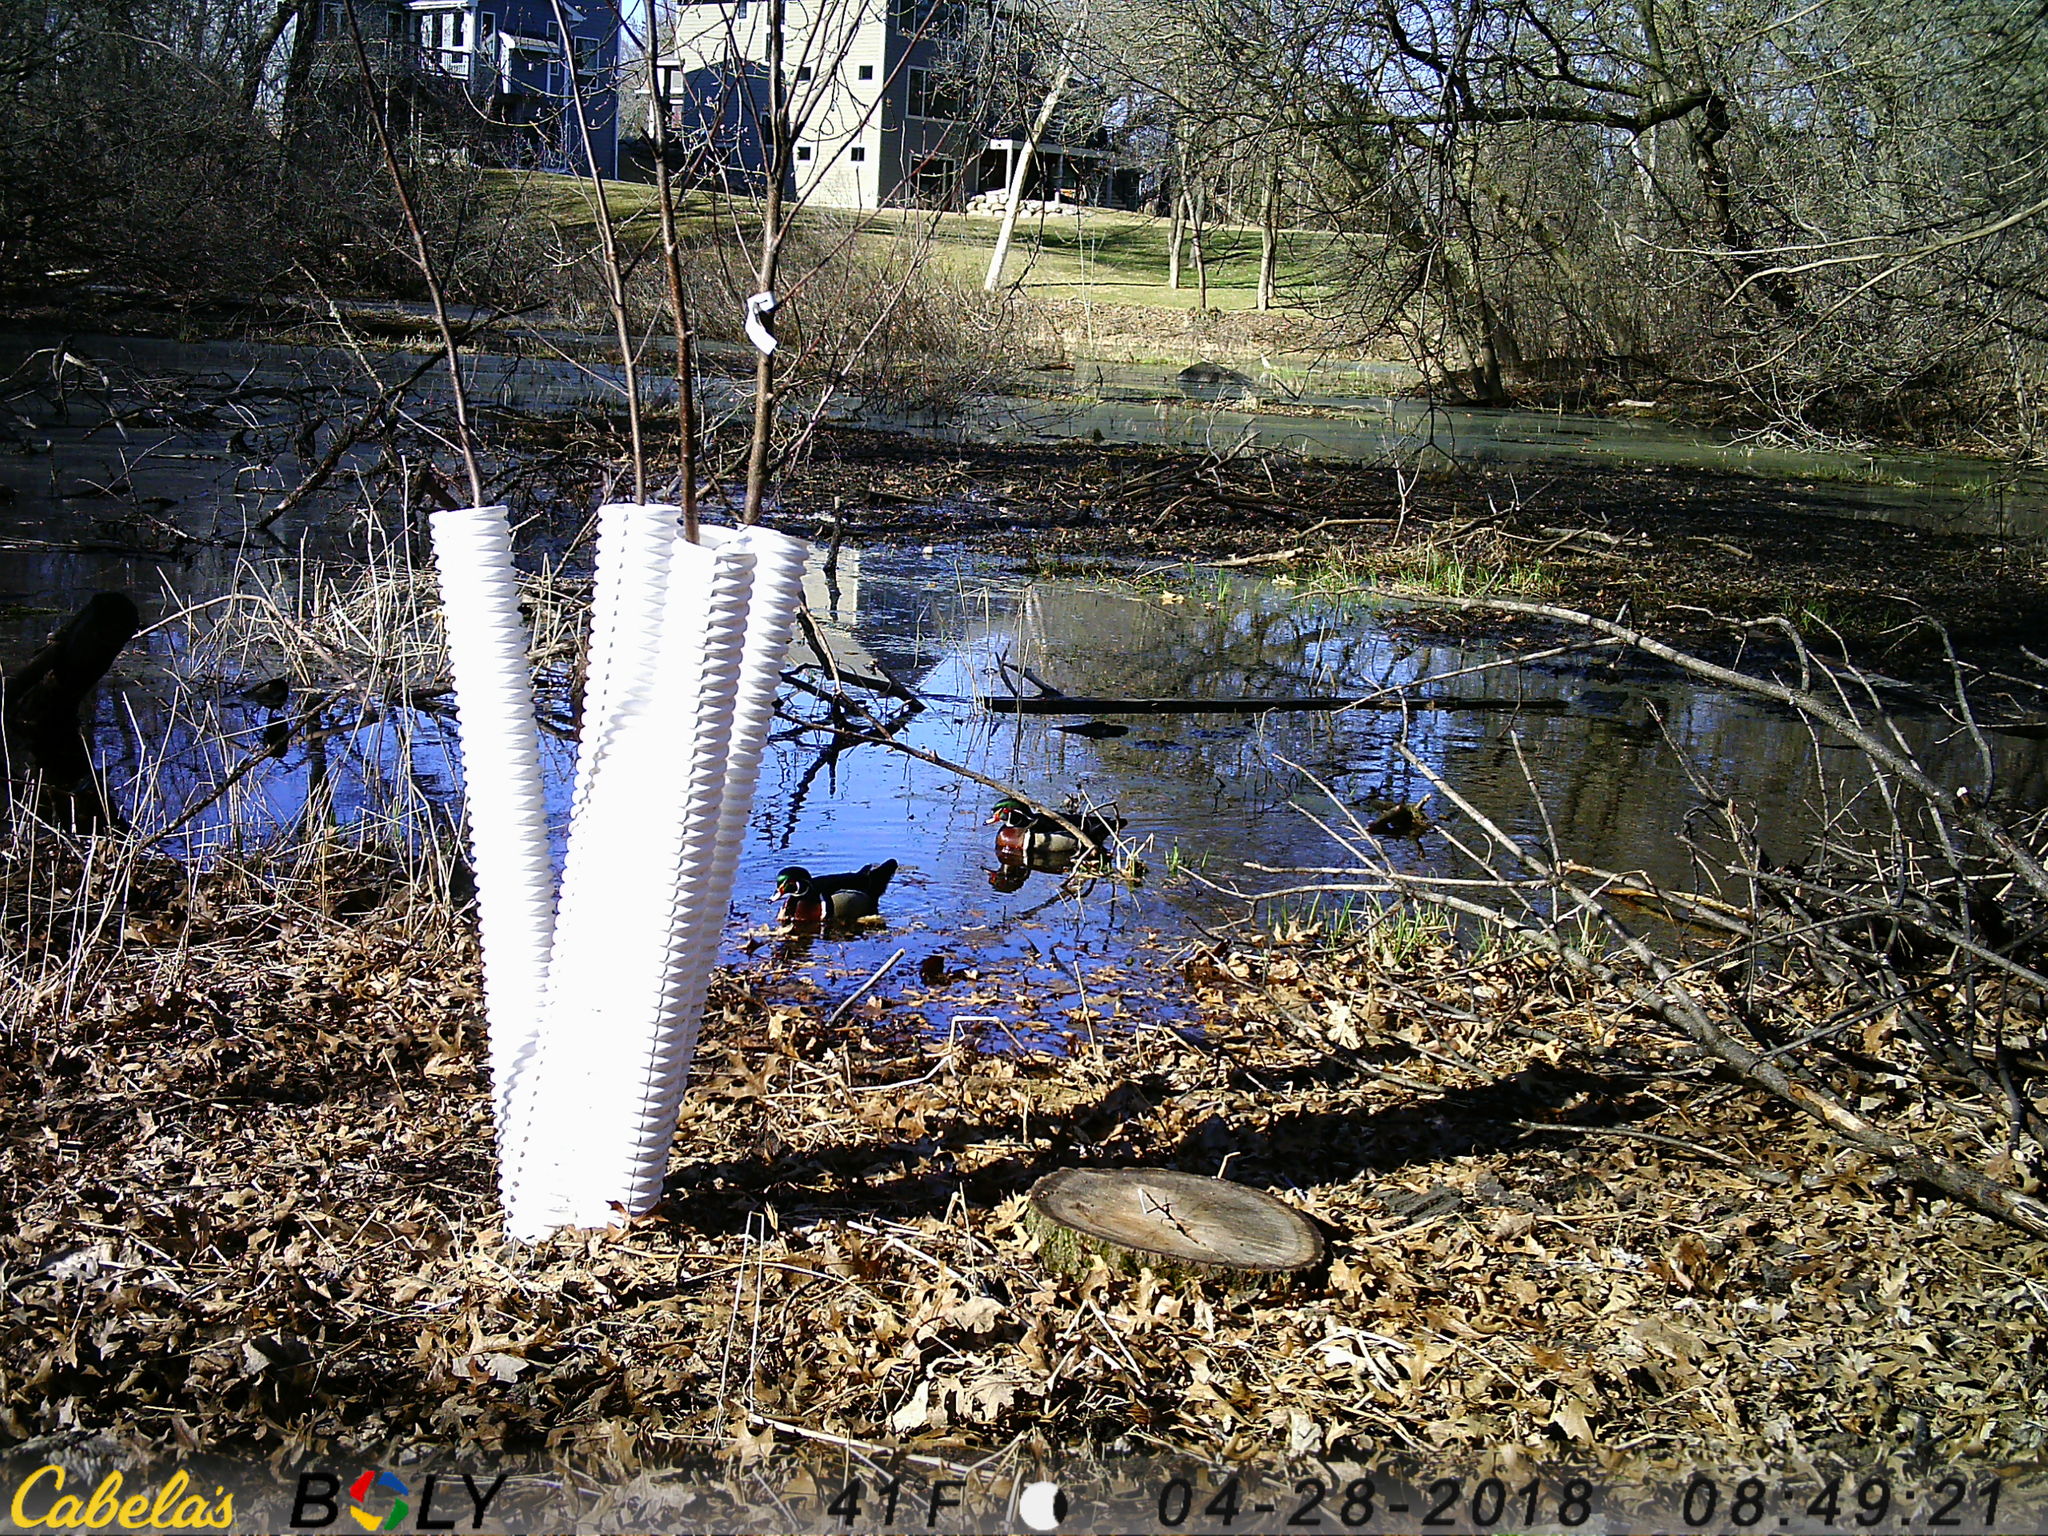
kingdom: Animalia
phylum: Chordata
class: Aves
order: Anseriformes
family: Anatidae
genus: Aix
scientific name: Aix sponsa
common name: Wood duck
